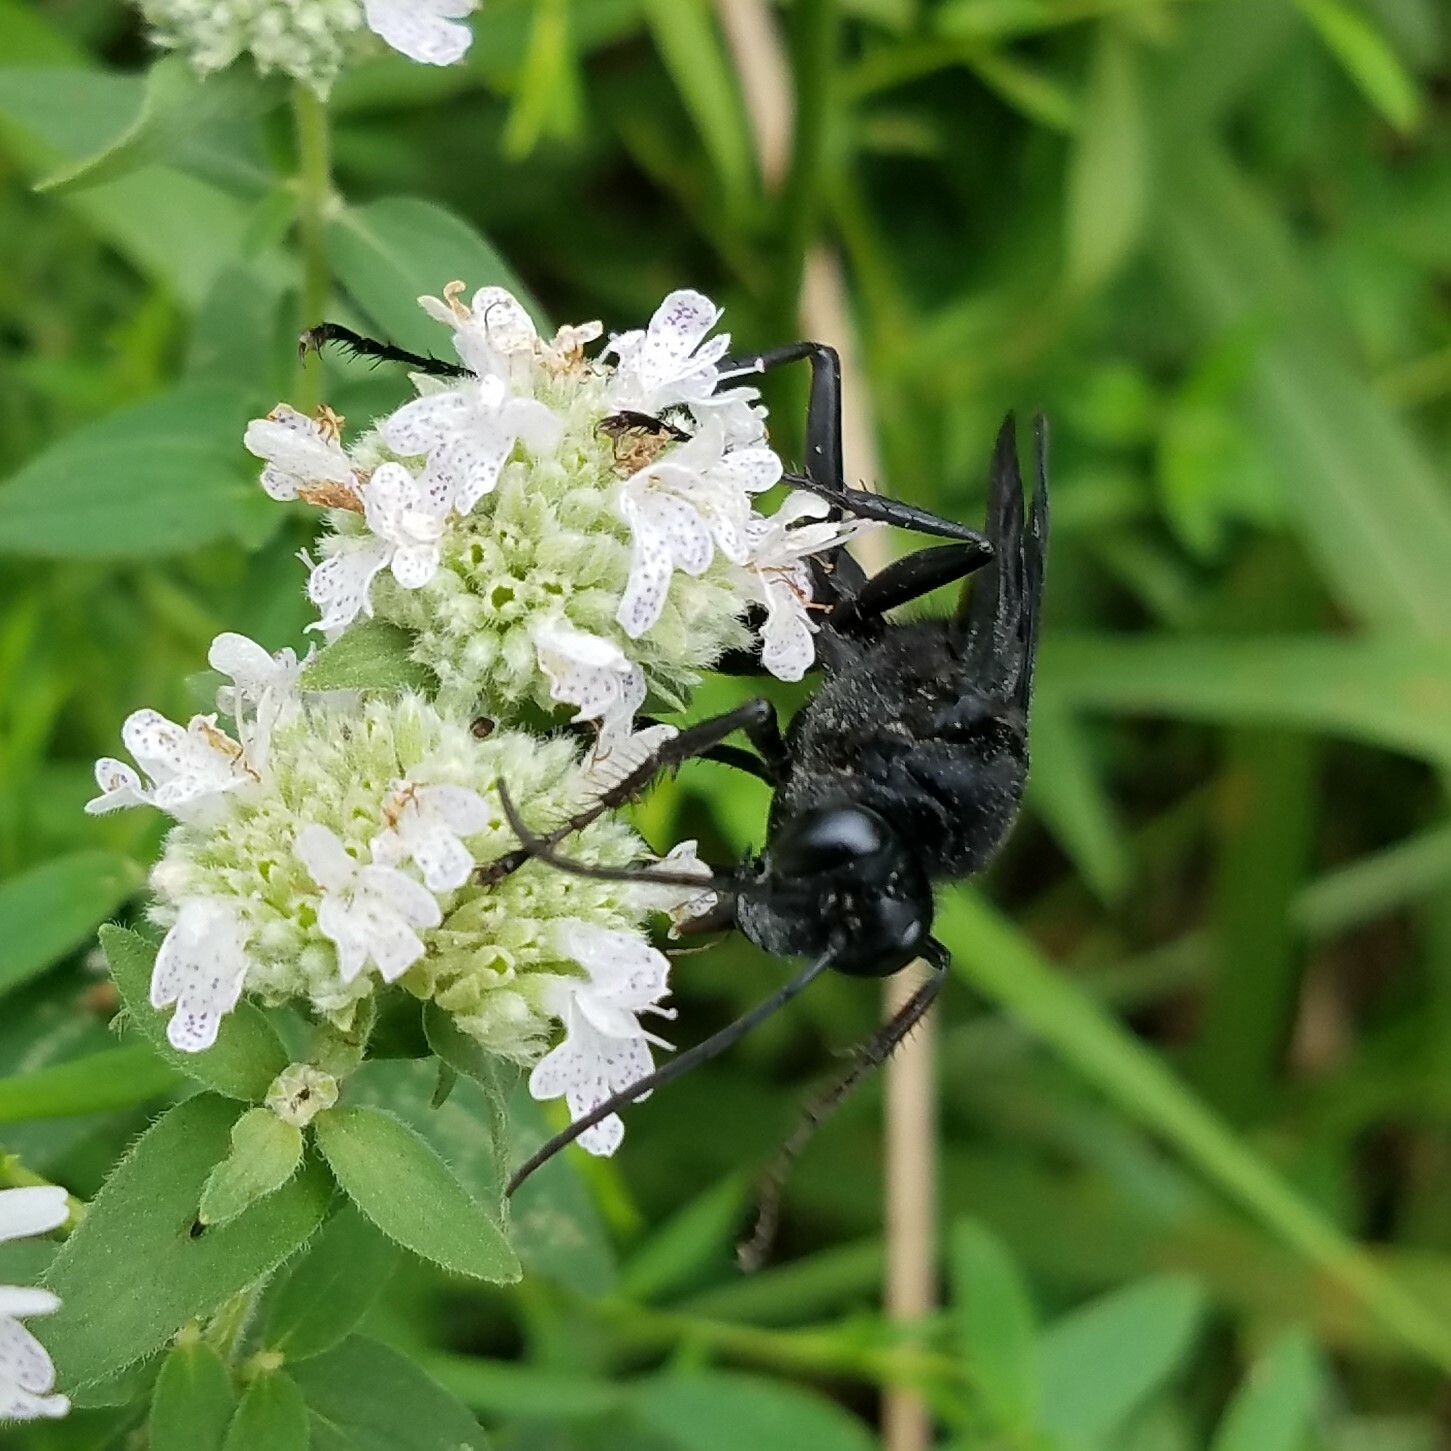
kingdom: Animalia
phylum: Arthropoda
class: Insecta
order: Hymenoptera
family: Sphecidae
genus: Sphex
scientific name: Sphex pensylvanicus
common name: Great black digger wasp
